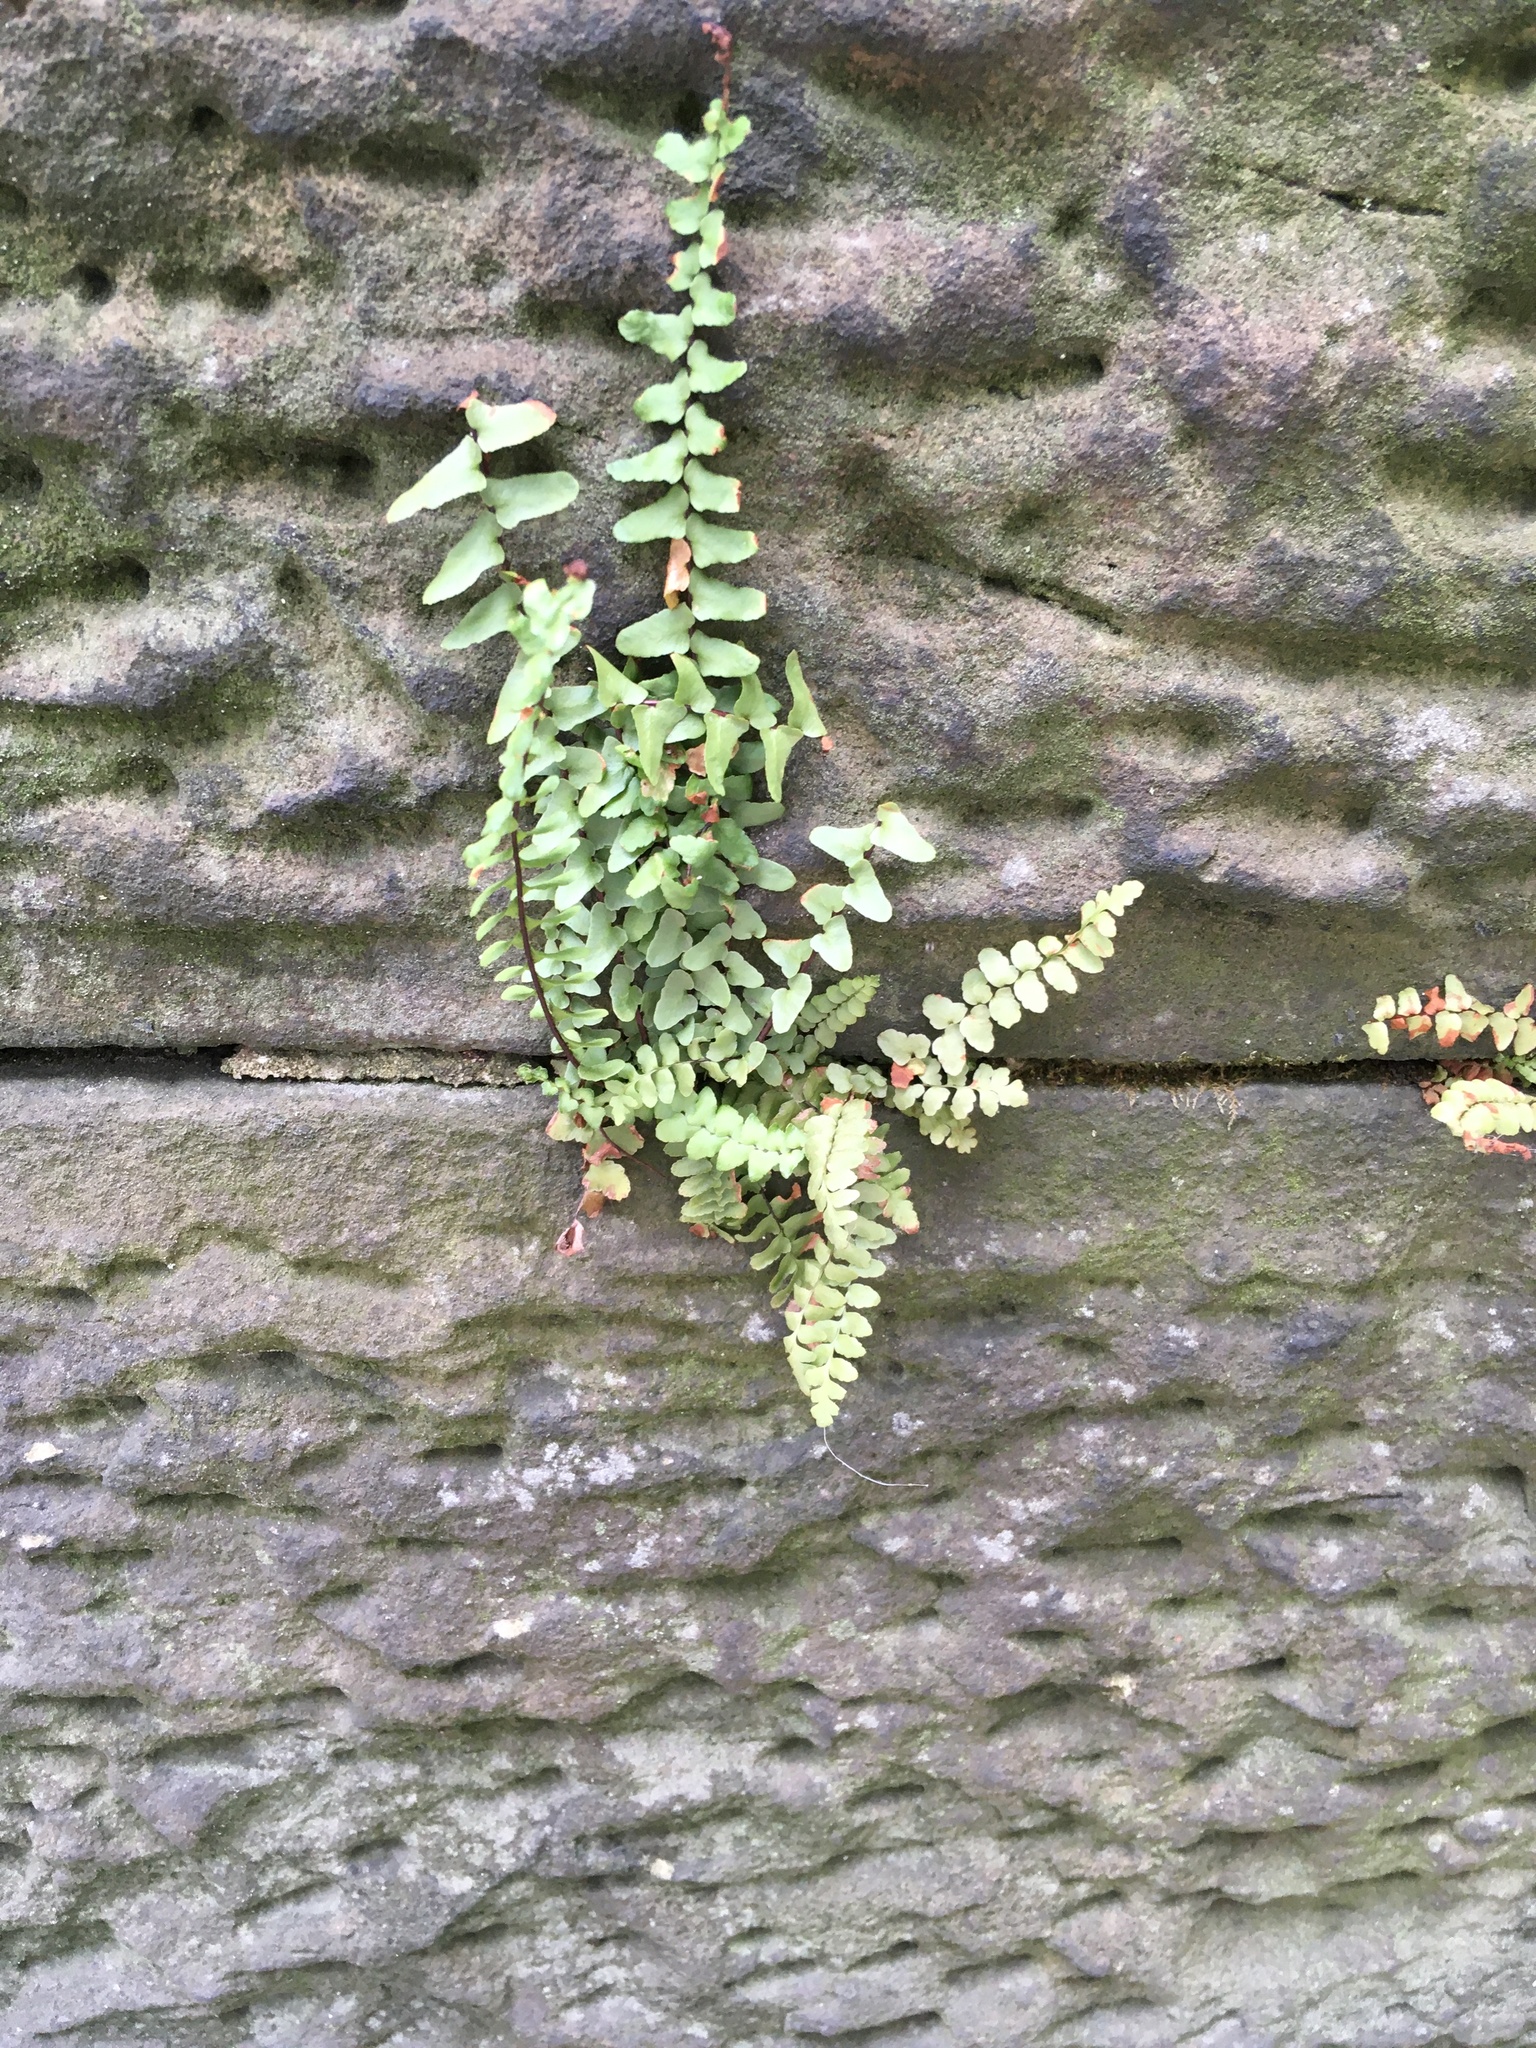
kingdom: Plantae
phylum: Tracheophyta
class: Polypodiopsida
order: Polypodiales
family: Aspleniaceae
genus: Asplenium
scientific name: Asplenium platyneuron
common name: Ebony spleenwort
